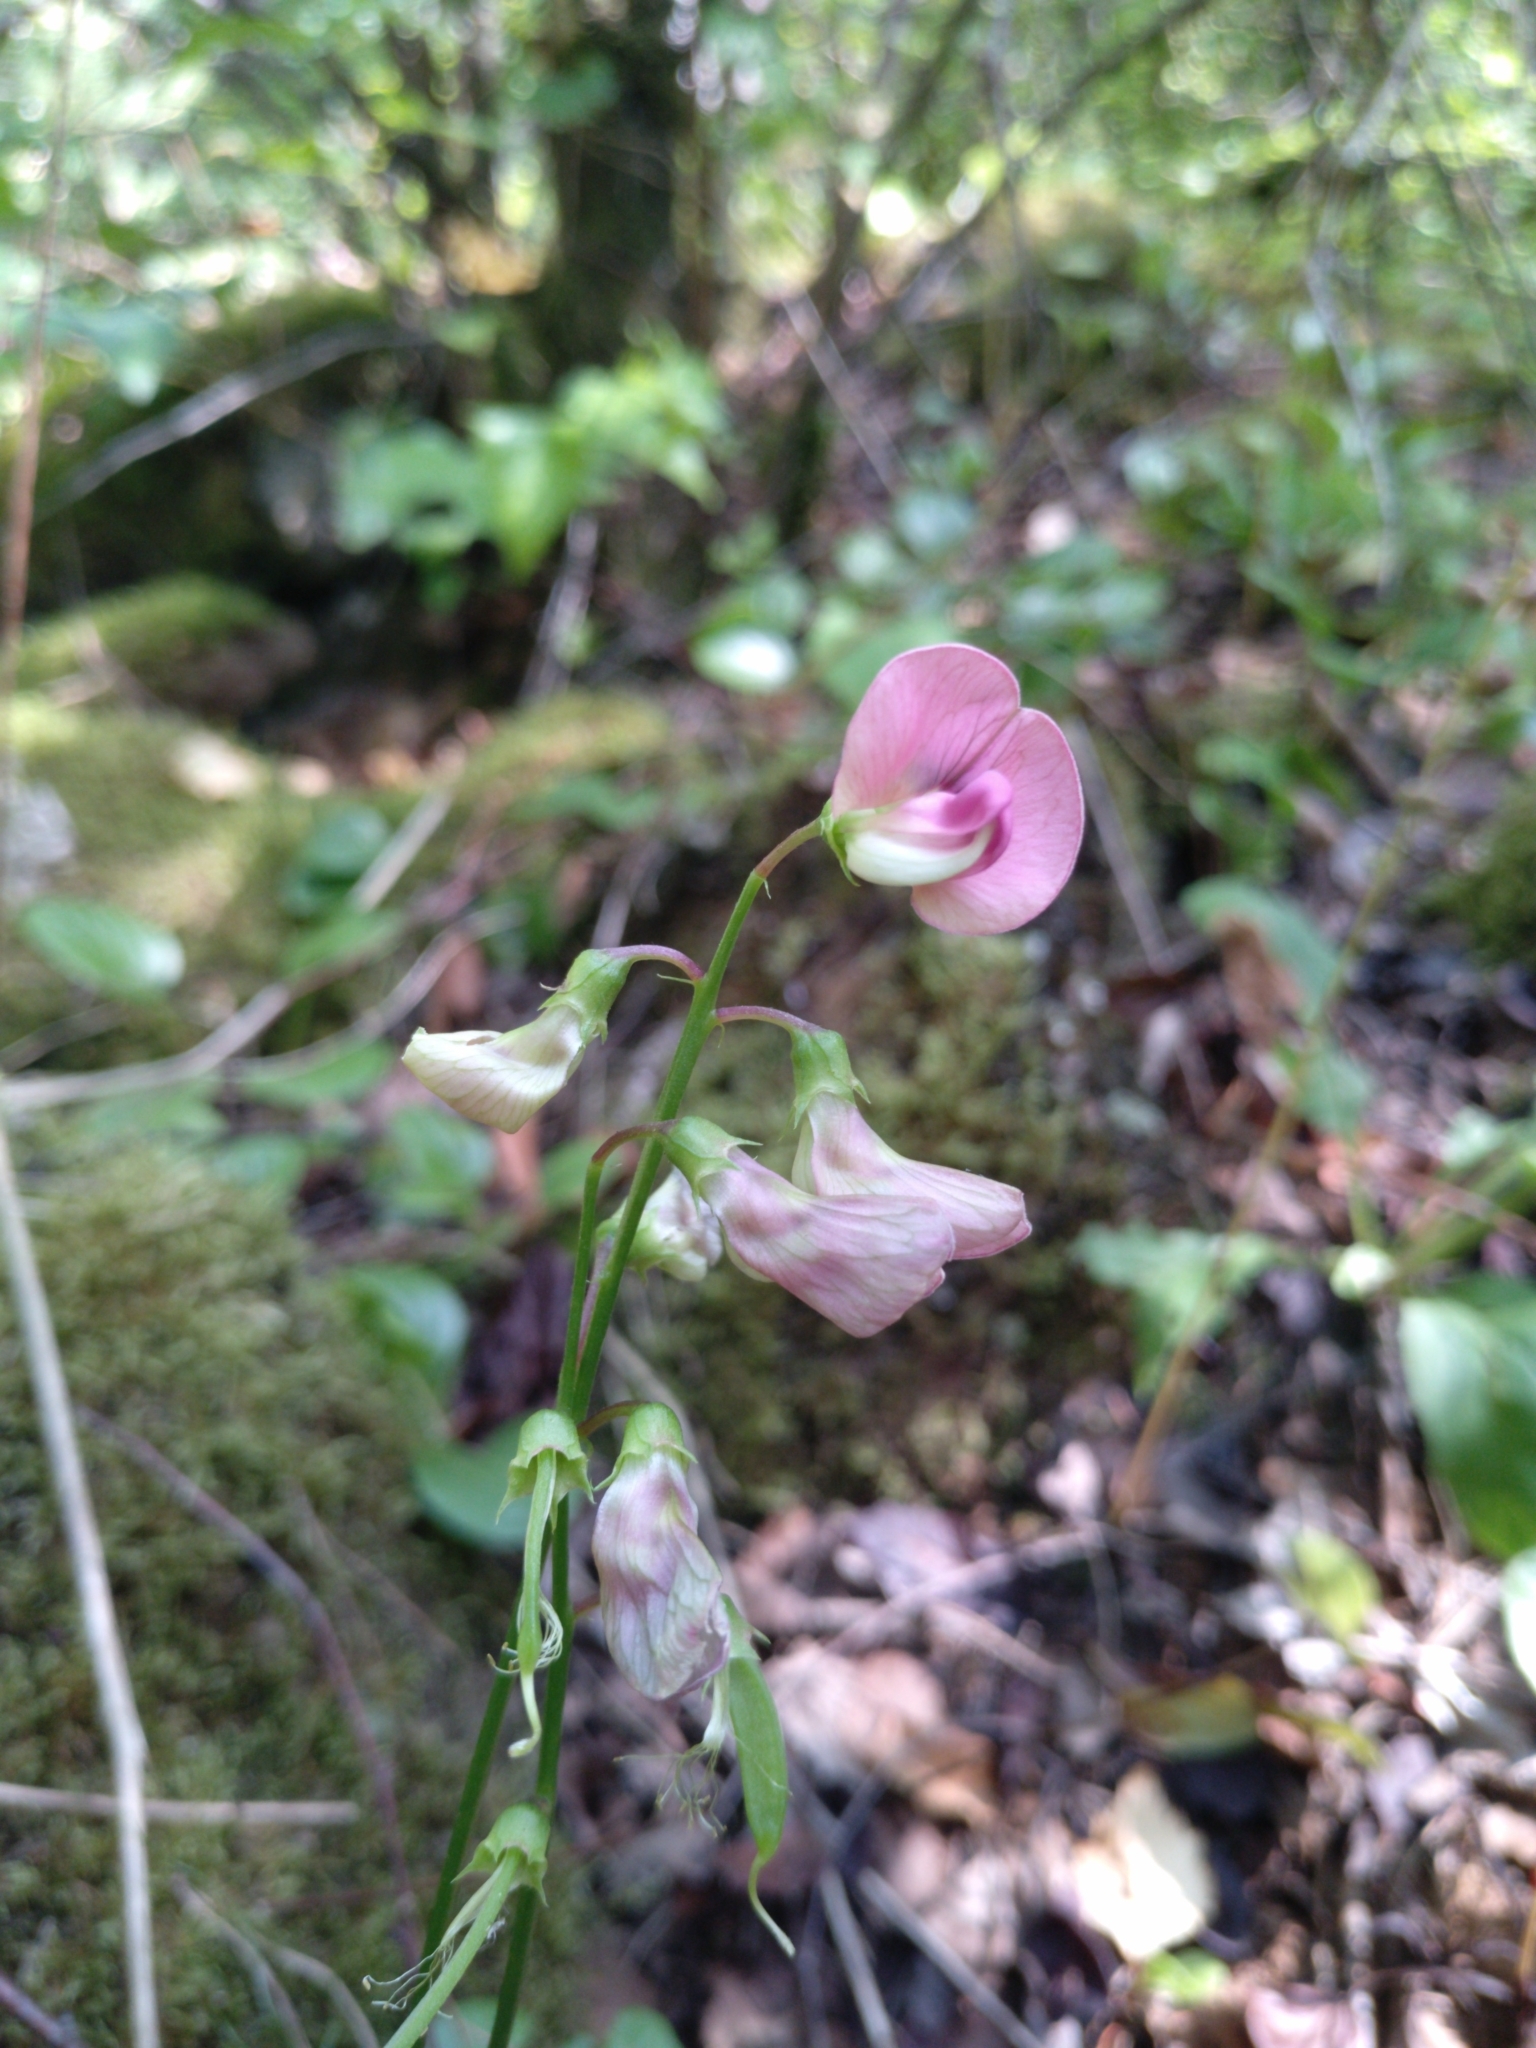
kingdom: Plantae
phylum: Tracheophyta
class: Magnoliopsida
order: Fabales
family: Fabaceae
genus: Lathyrus
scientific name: Lathyrus sylvestris
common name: Flat pea
